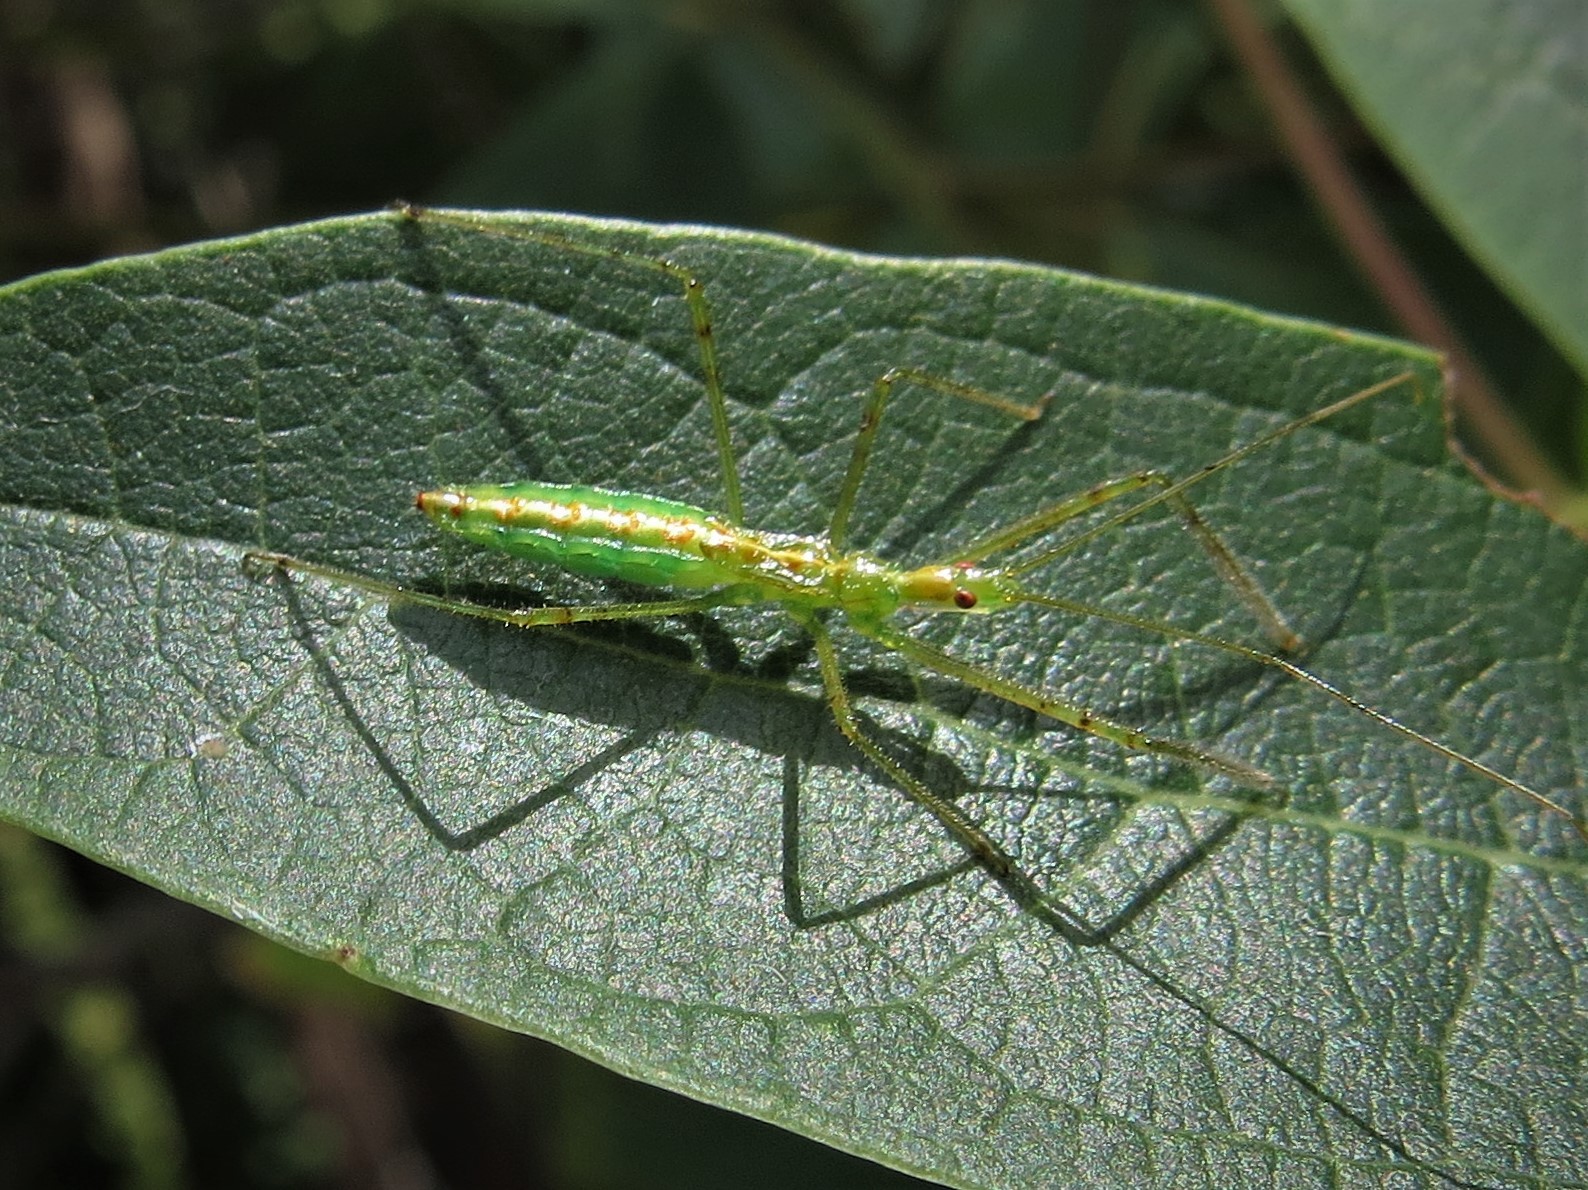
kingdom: Animalia
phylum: Arthropoda
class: Insecta
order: Hemiptera
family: Reduviidae
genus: Zelus
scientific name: Zelus luridus
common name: Pale green assassin bug
